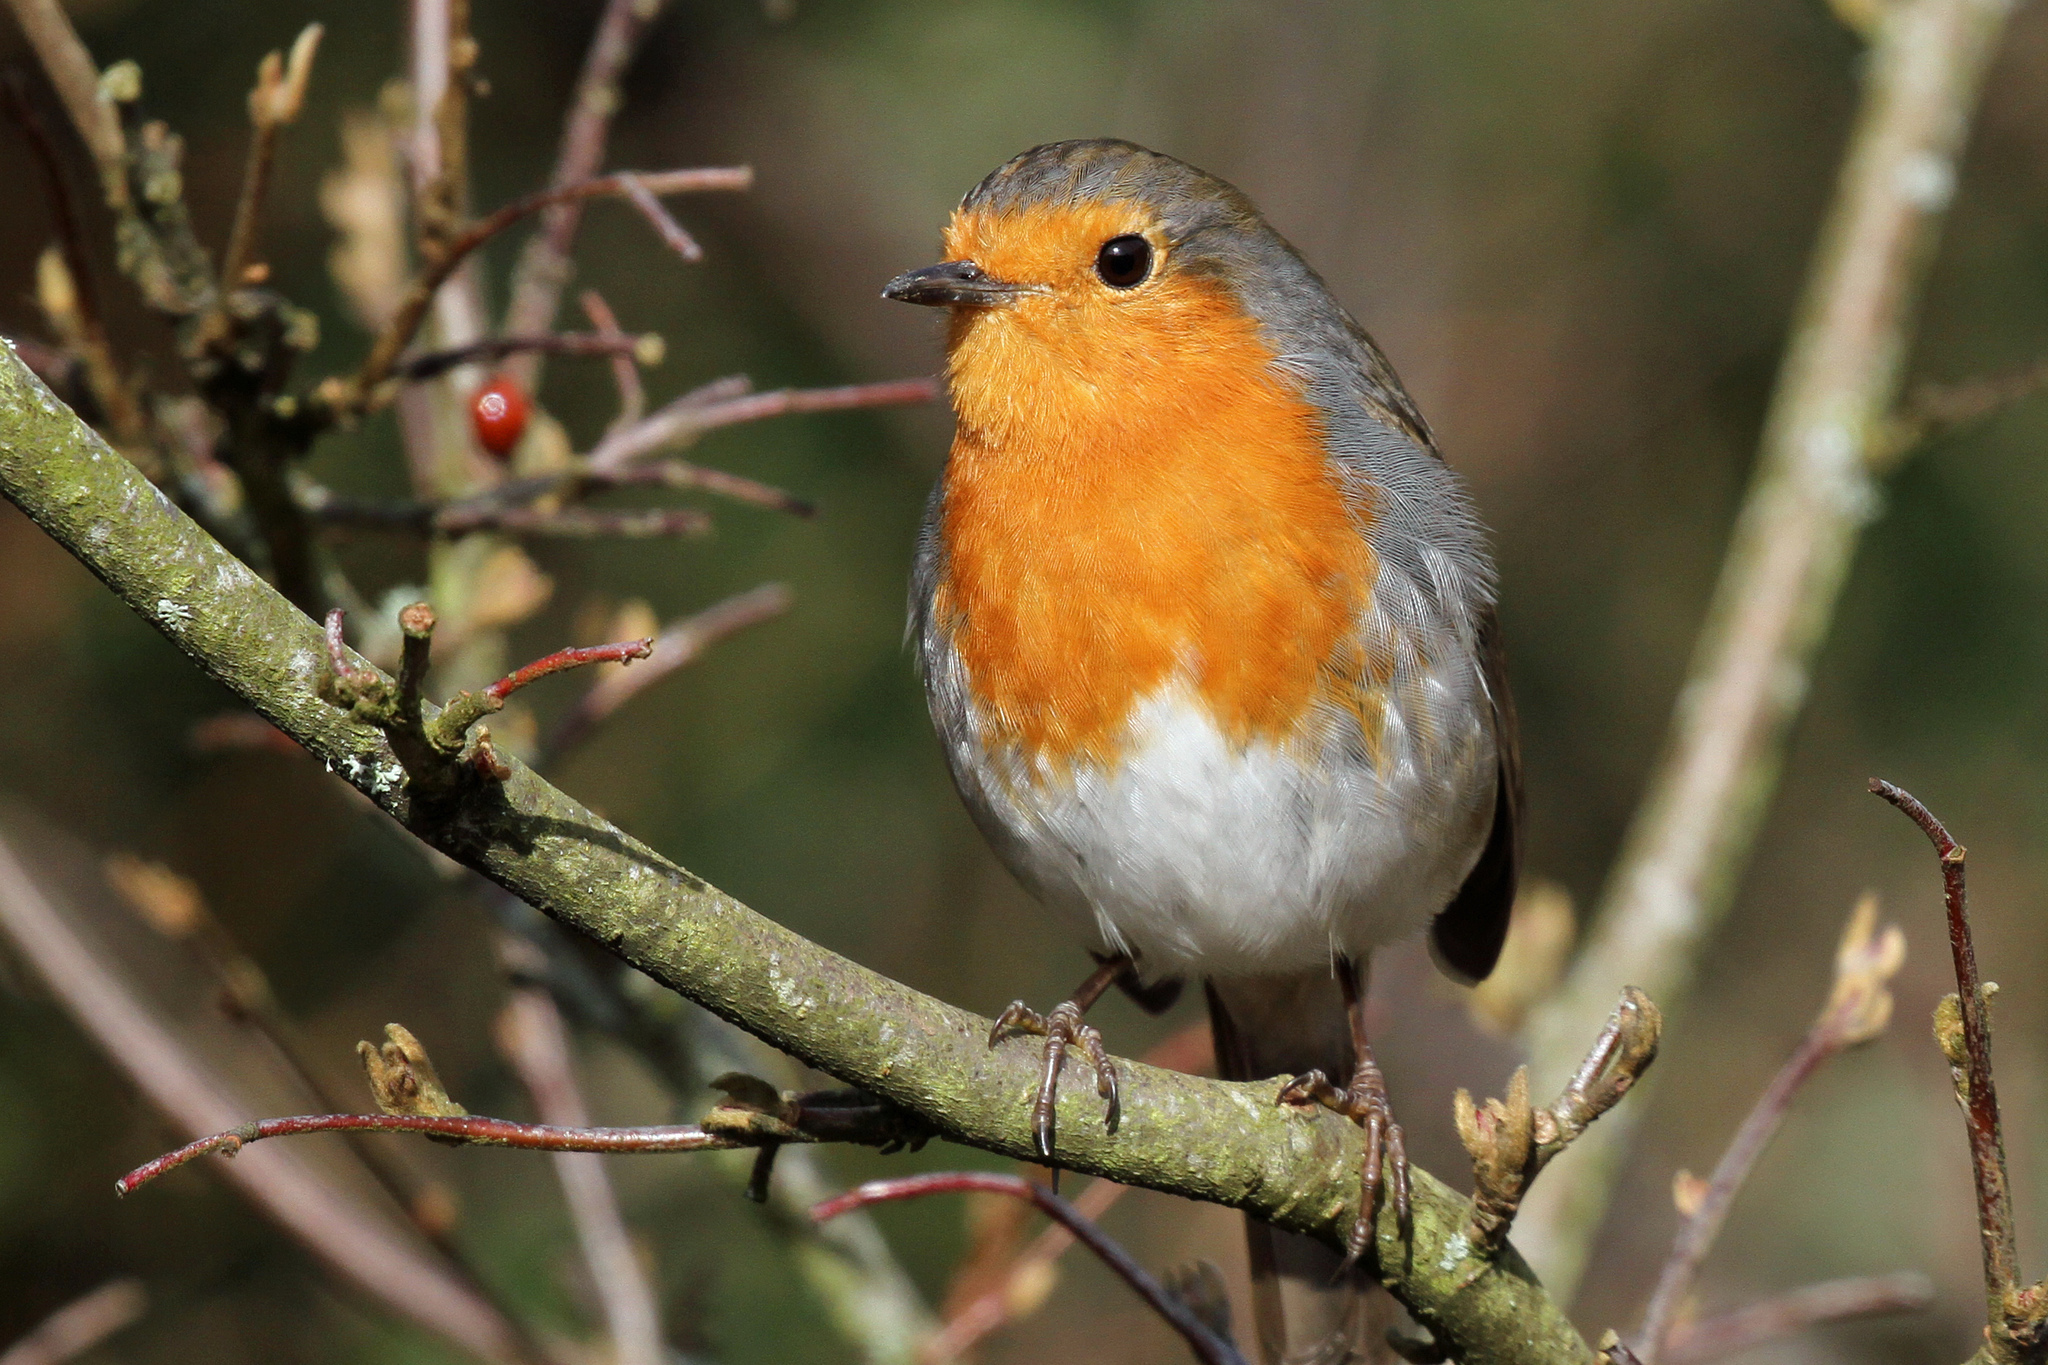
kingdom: Animalia
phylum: Chordata
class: Aves
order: Passeriformes
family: Muscicapidae
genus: Erithacus
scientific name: Erithacus rubecula
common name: European robin
